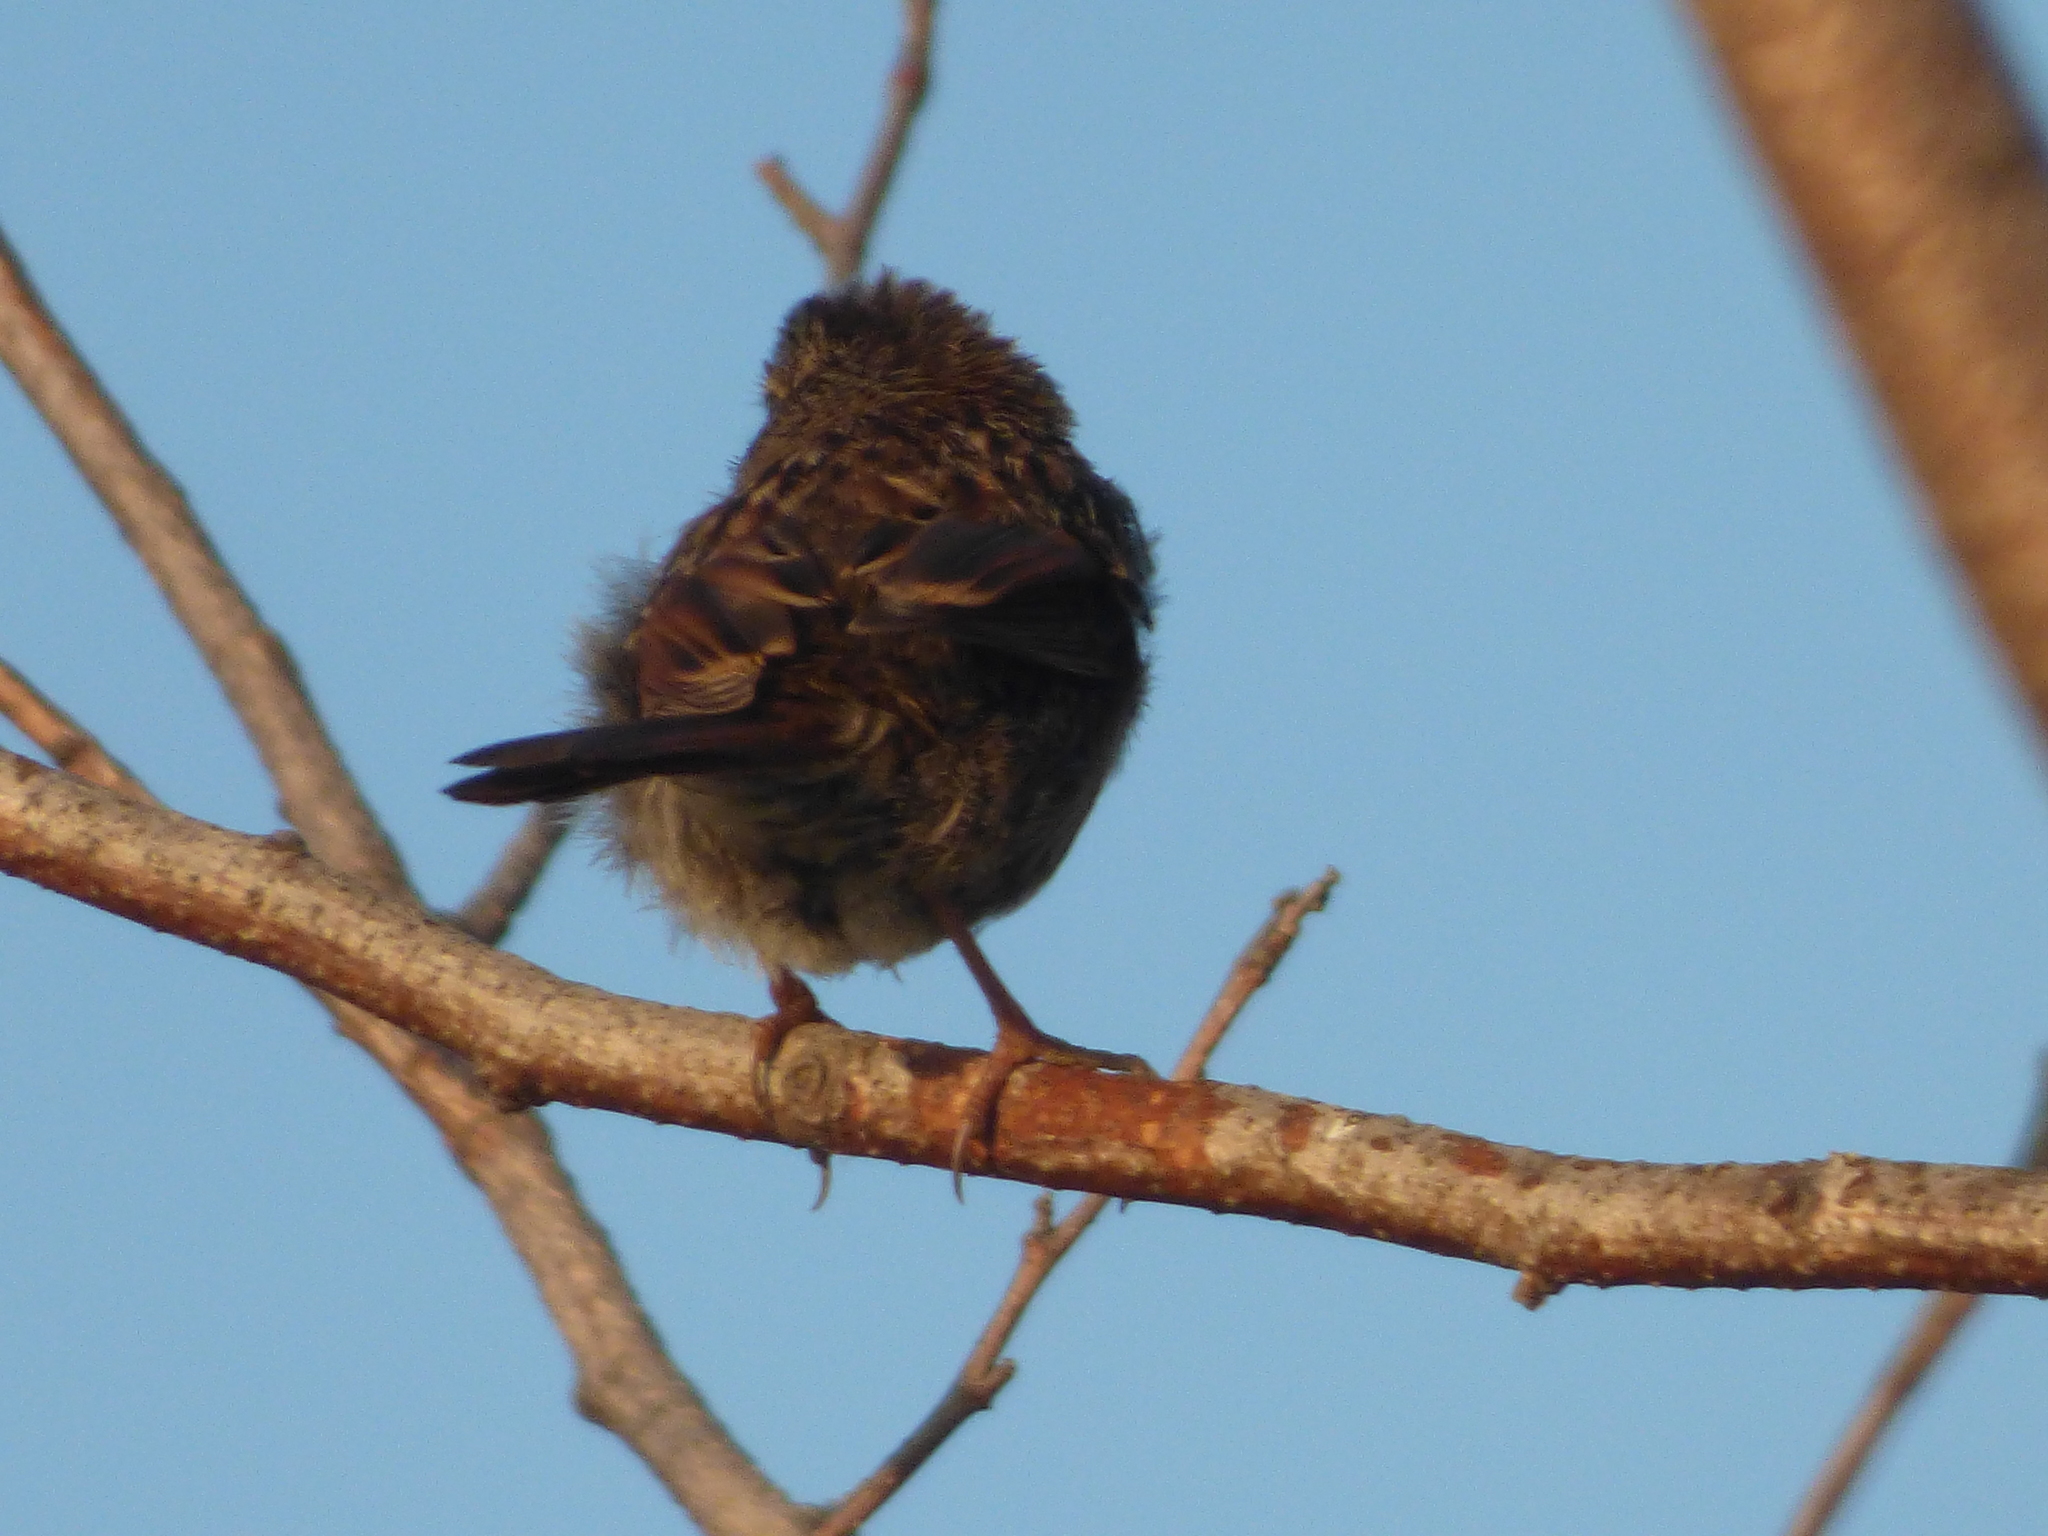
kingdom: Animalia
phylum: Chordata
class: Aves
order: Passeriformes
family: Passerellidae
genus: Melospiza
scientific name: Melospiza melodia
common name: Song sparrow
